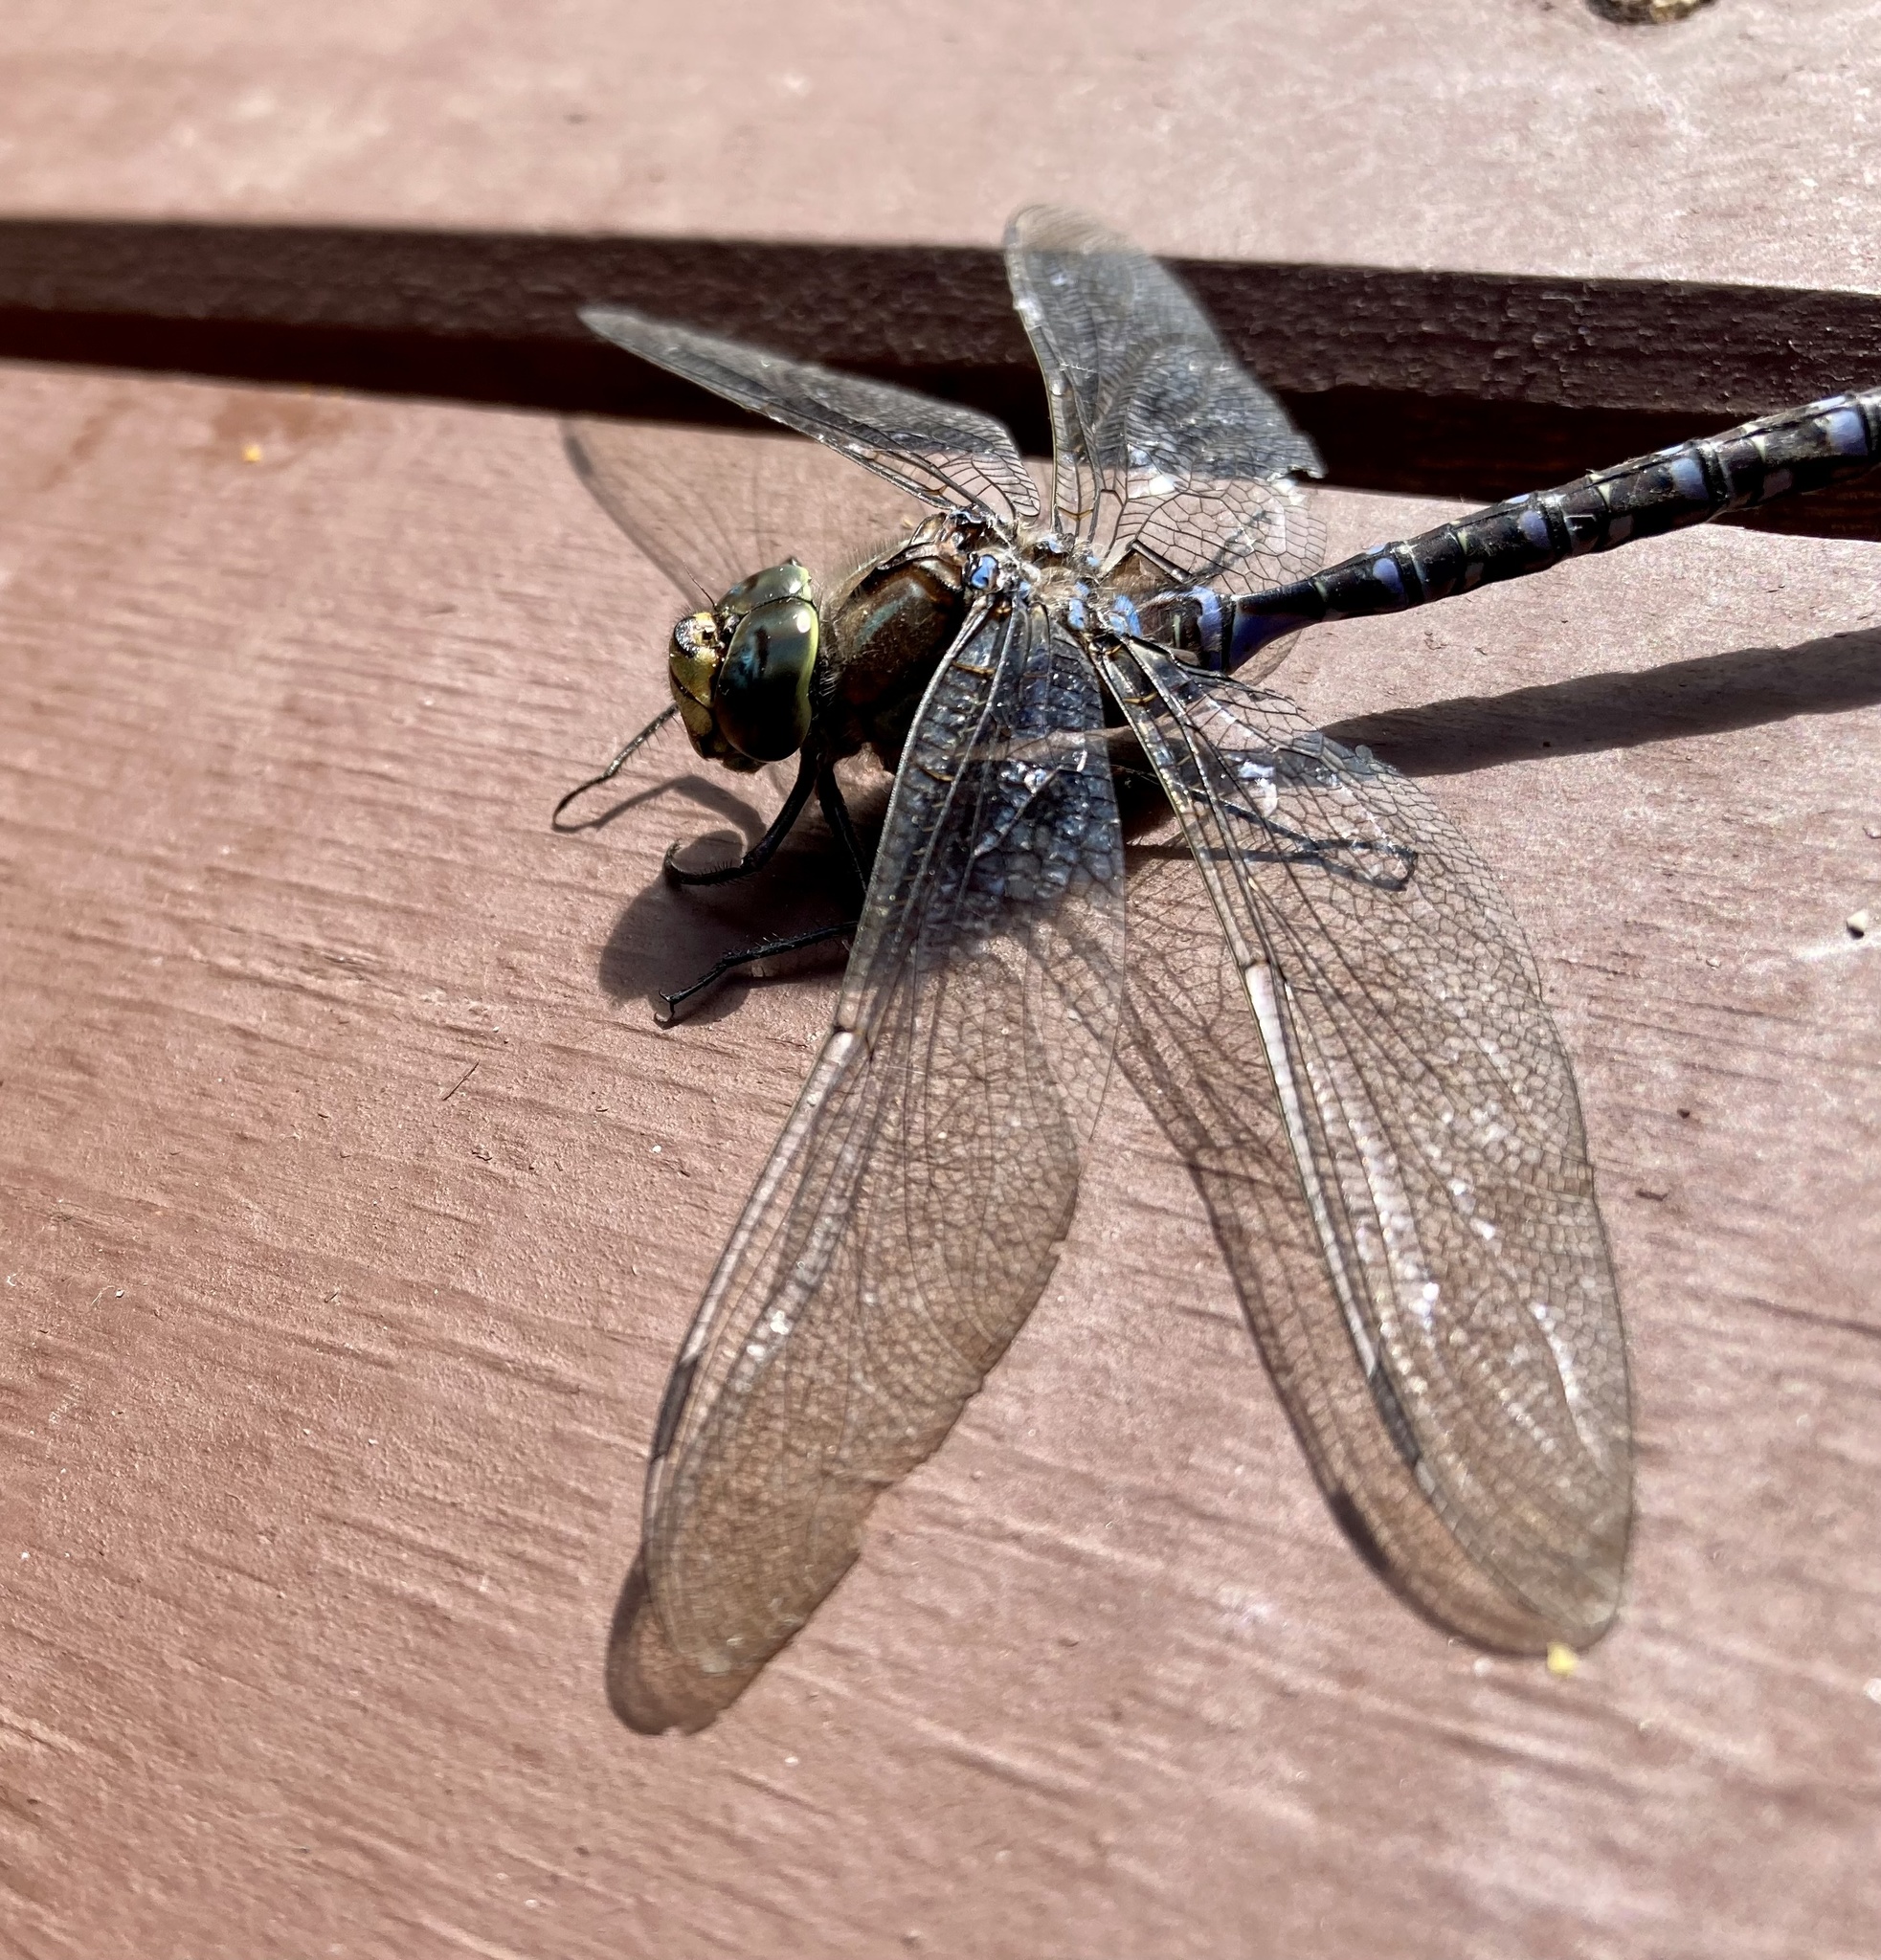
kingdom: Animalia
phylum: Arthropoda
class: Insecta
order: Odonata
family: Aeshnidae
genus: Aeshna
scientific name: Aeshna eremita
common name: Lake darner
